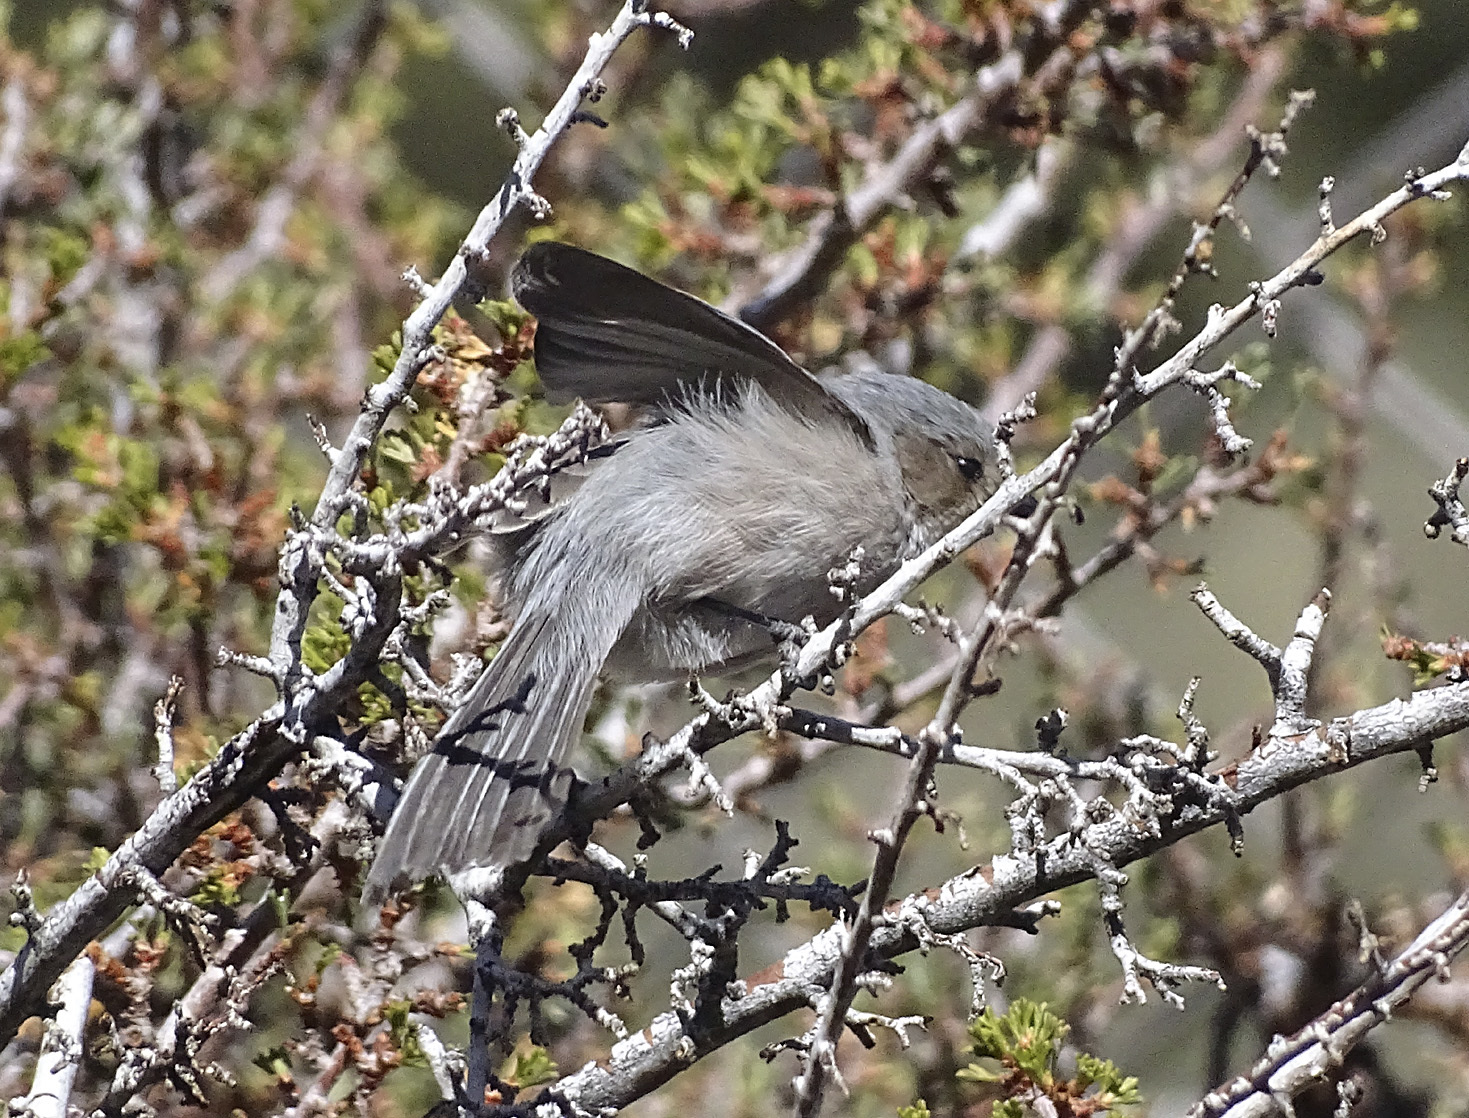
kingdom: Animalia
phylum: Chordata
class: Aves
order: Passeriformes
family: Aegithalidae
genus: Psaltriparus
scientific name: Psaltriparus minimus
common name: American bushtit
